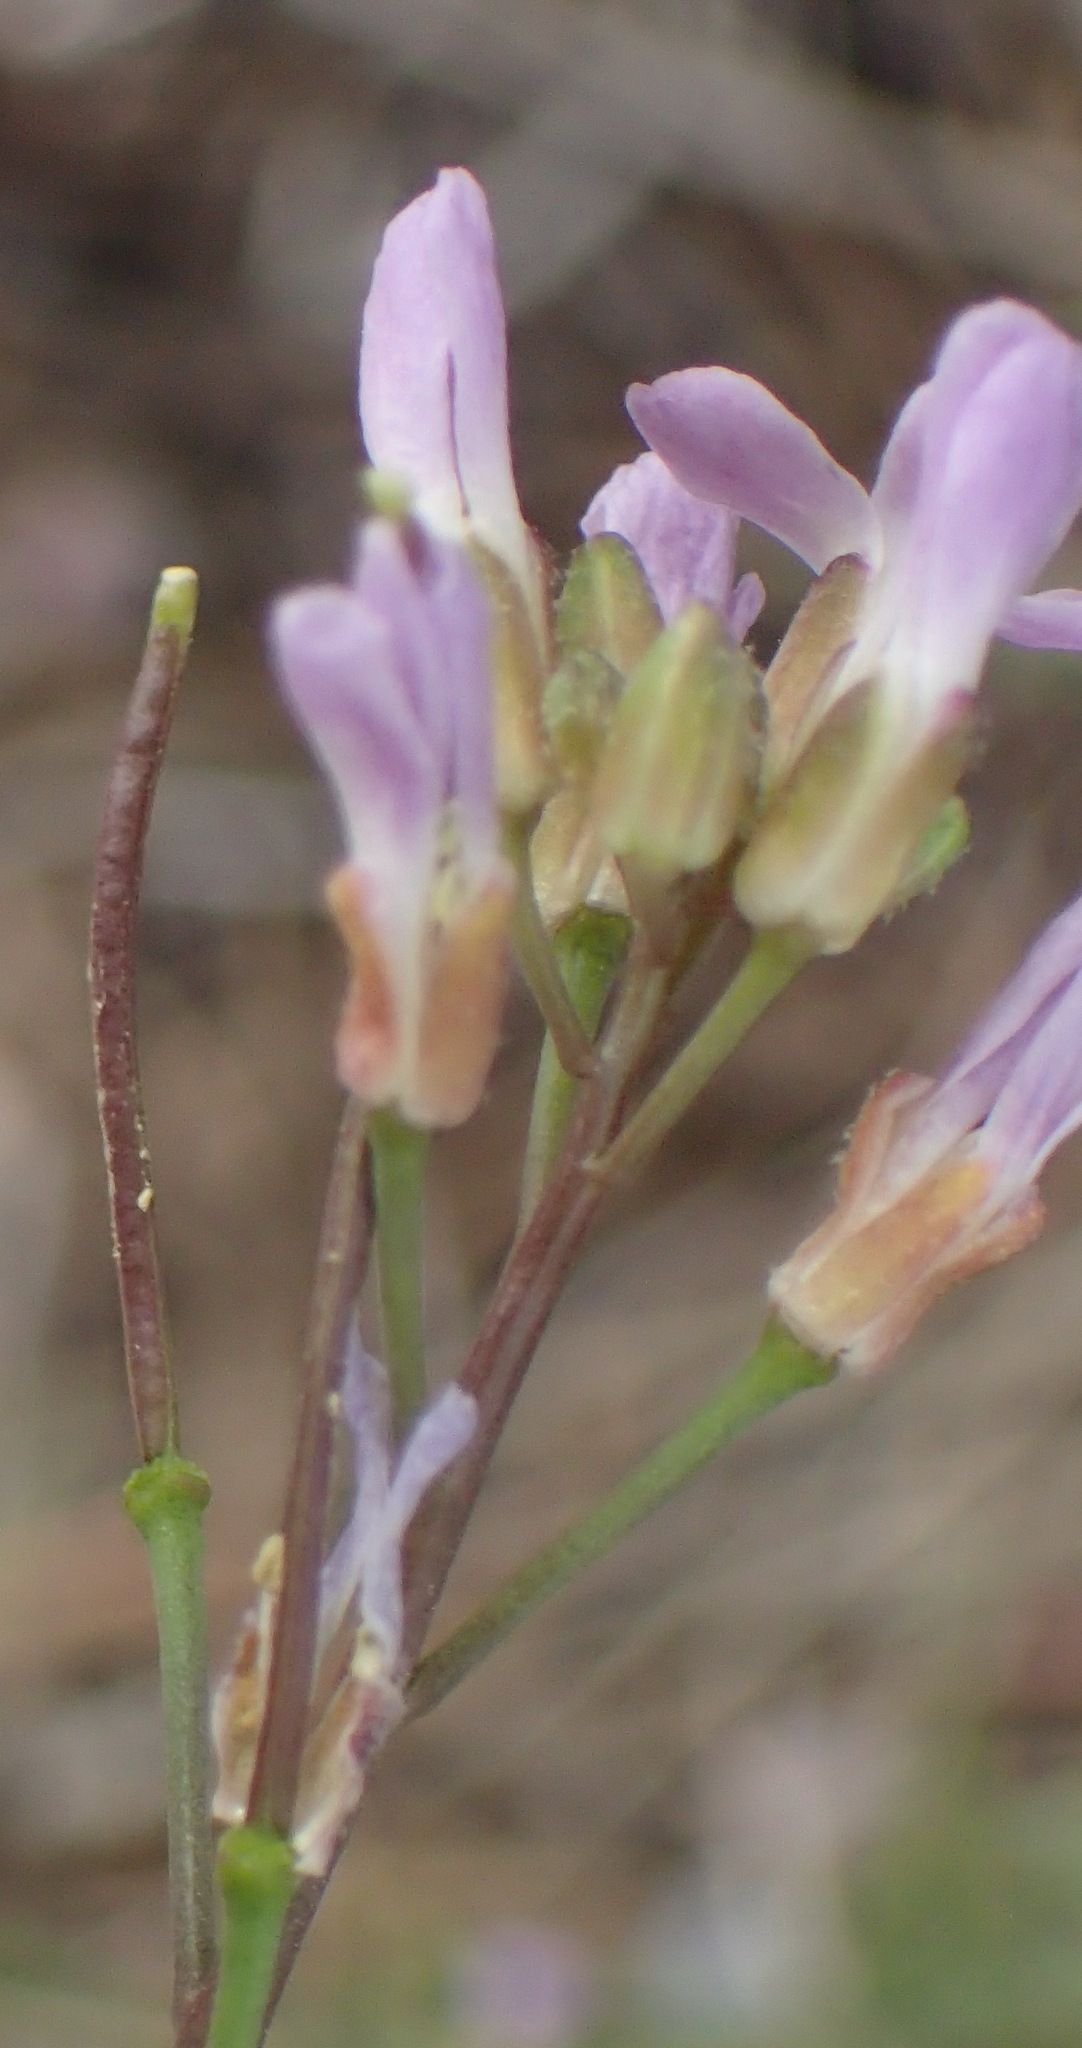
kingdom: Plantae
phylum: Tracheophyta
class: Magnoliopsida
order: Brassicales
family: Brassicaceae
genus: Boechera
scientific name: Boechera pallidifolia
